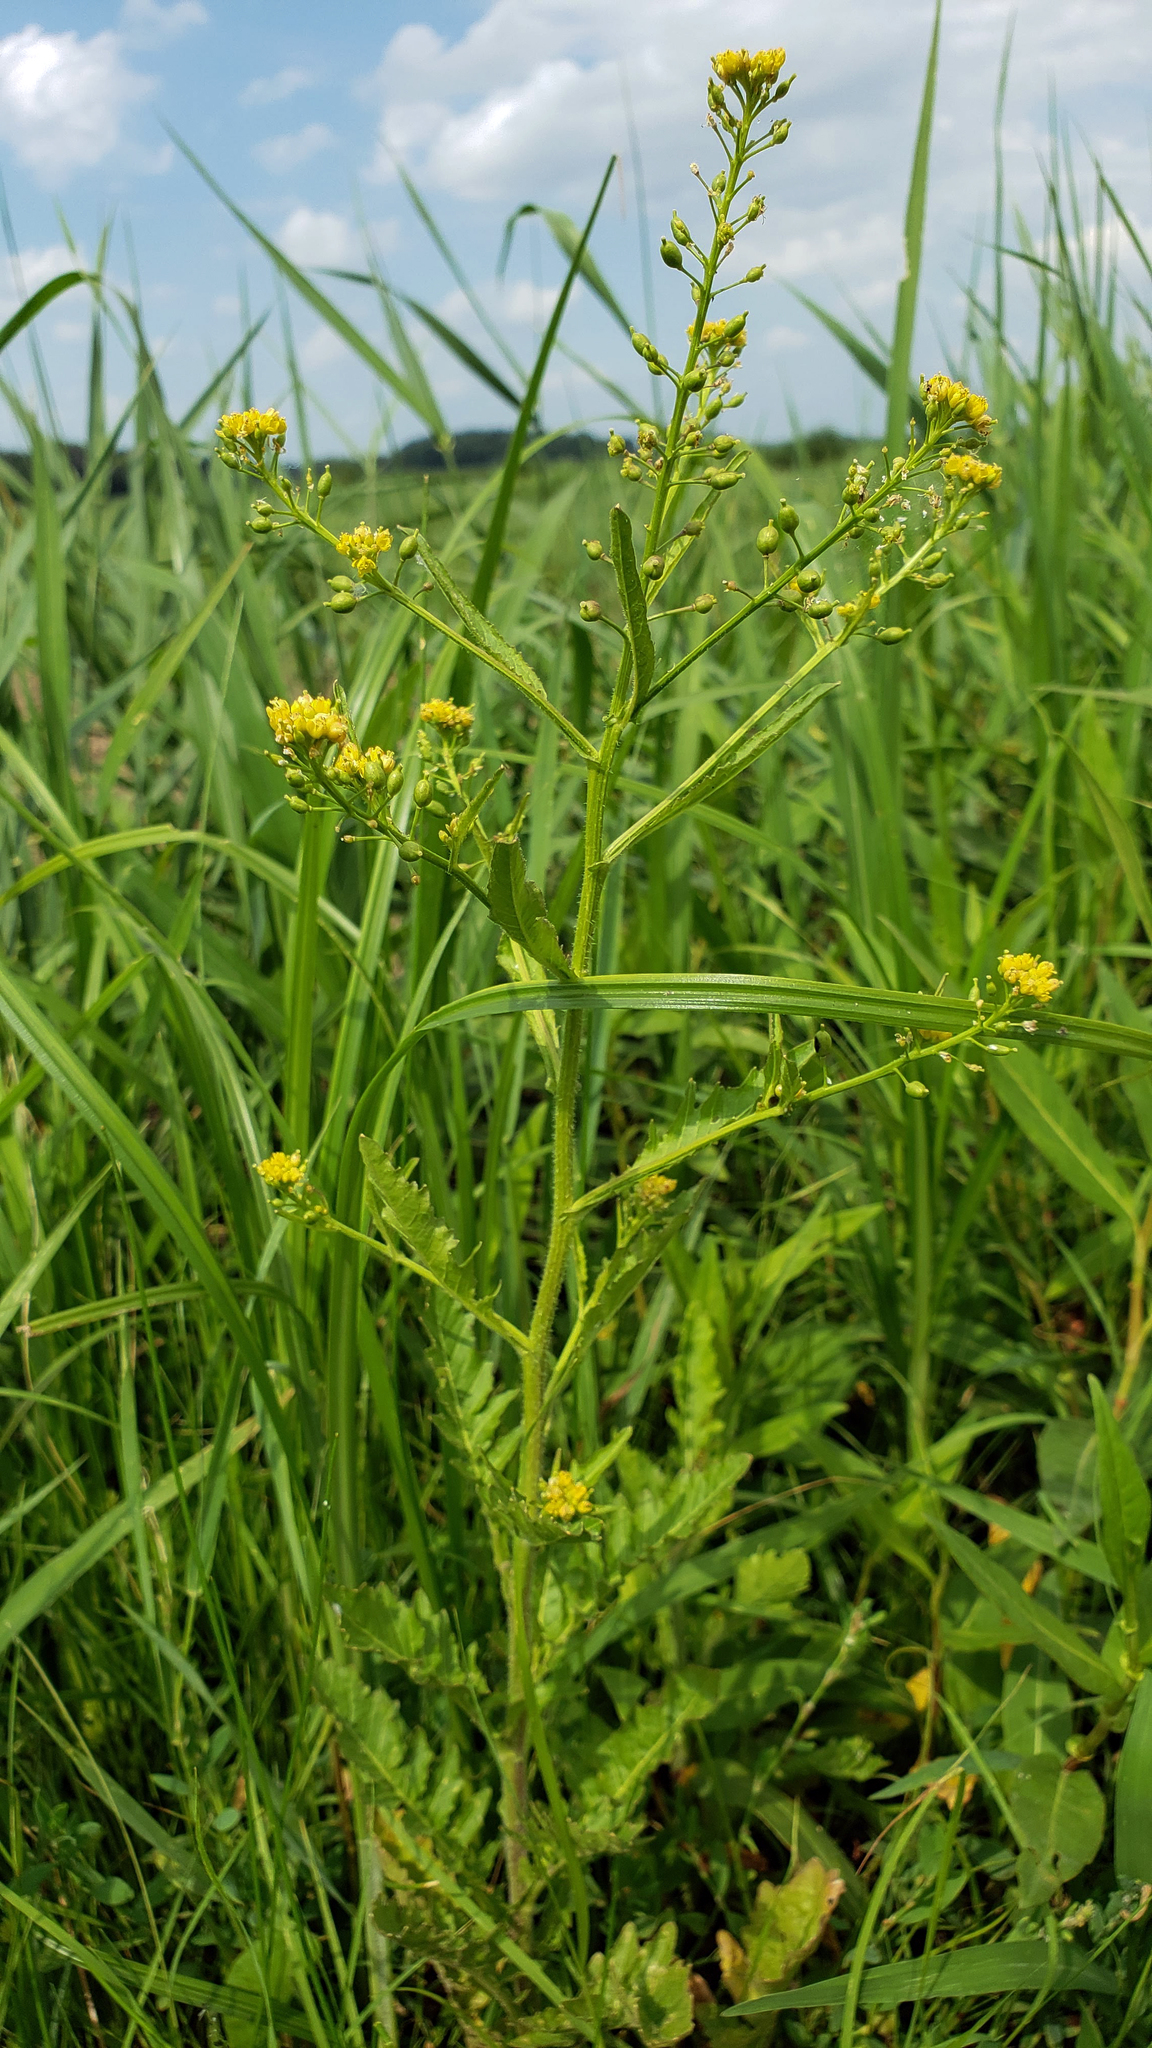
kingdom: Plantae
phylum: Tracheophyta
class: Magnoliopsida
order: Brassicales
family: Brassicaceae
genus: Rorippa
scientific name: Rorippa palustris
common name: Marsh yellow-cress
